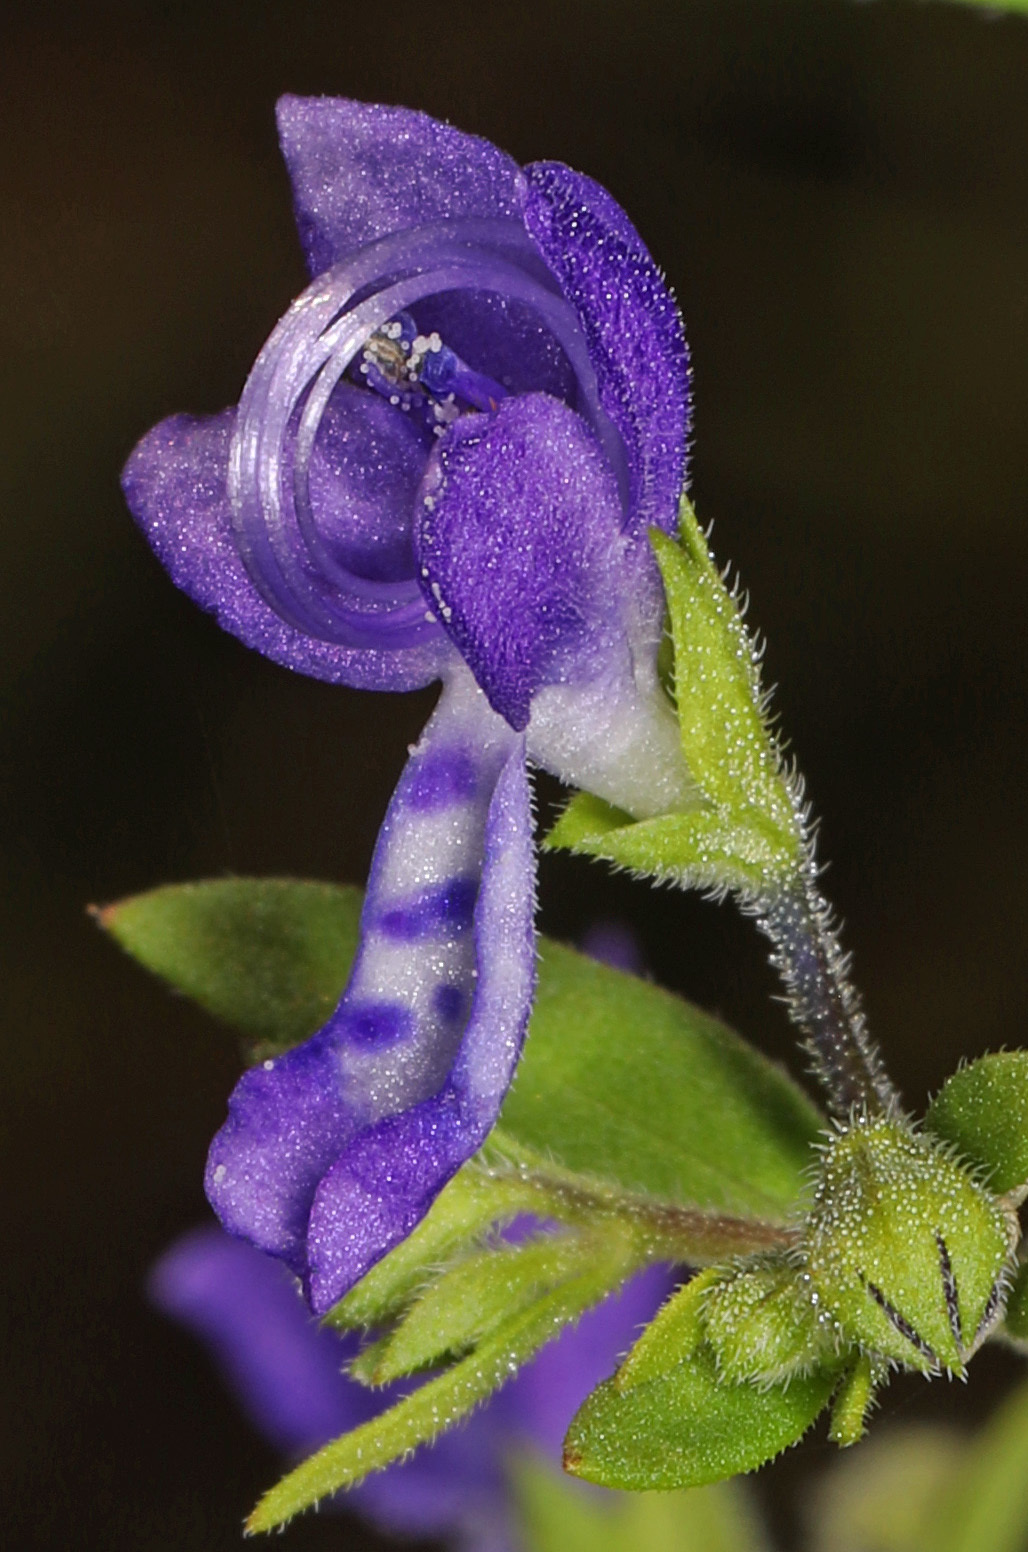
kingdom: Plantae
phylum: Tracheophyta
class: Magnoliopsida
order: Lamiales
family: Lamiaceae
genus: Trichostema
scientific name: Trichostema dichotomum
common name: Bastard pennyroyal
